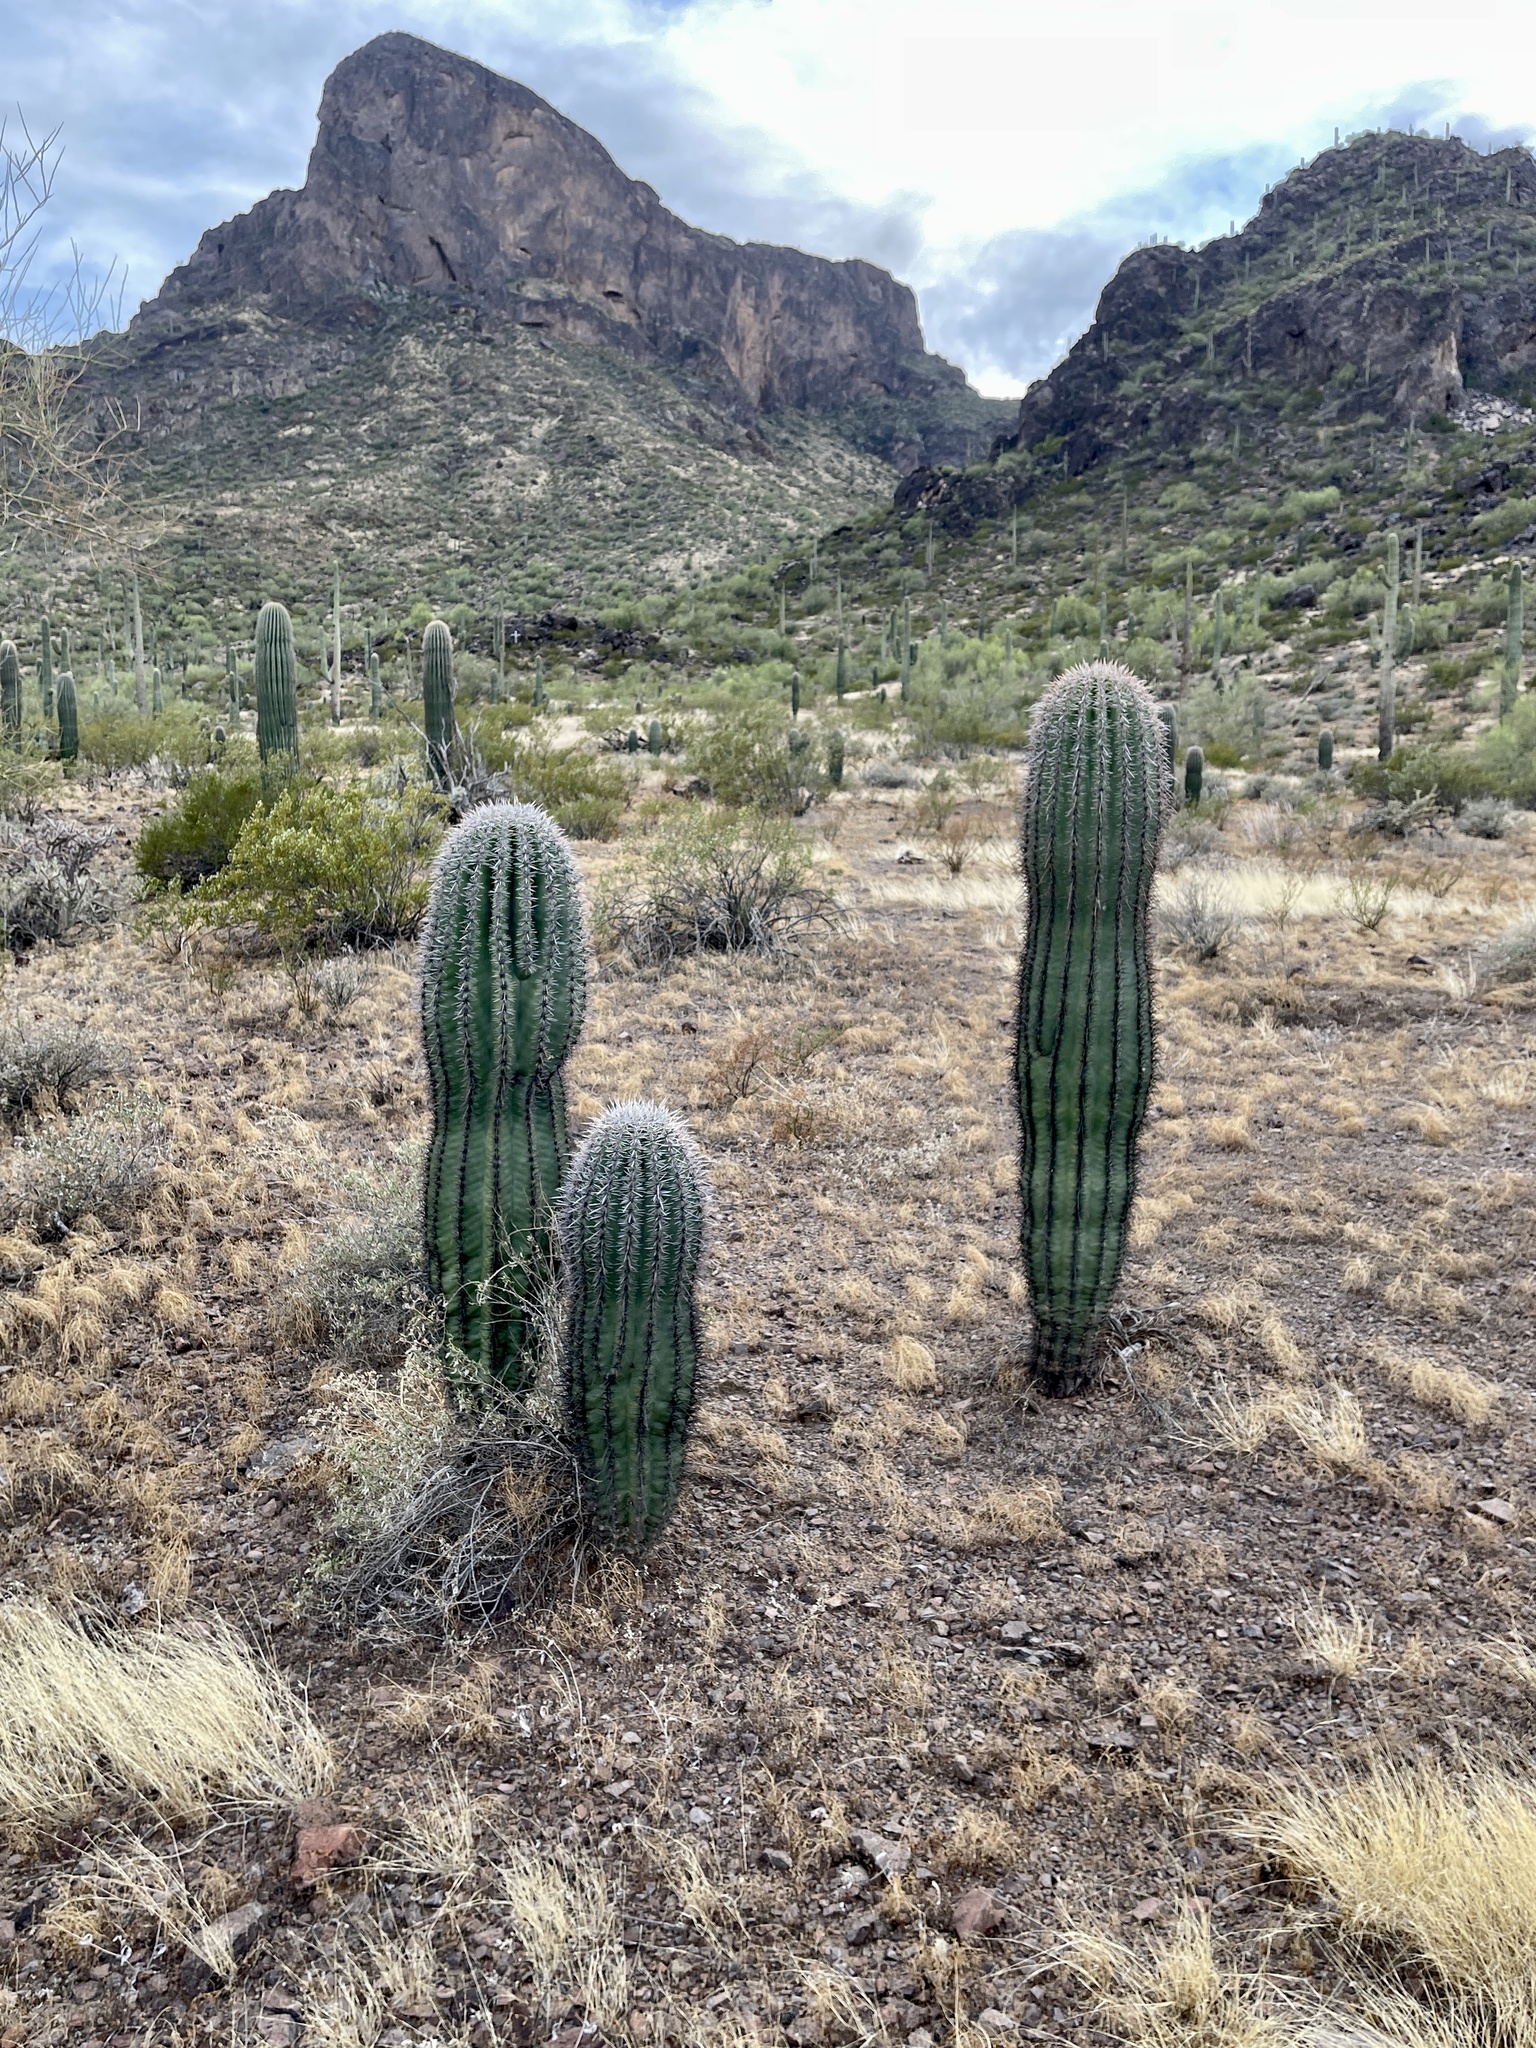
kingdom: Plantae
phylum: Tracheophyta
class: Magnoliopsida
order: Caryophyllales
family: Cactaceae
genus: Carnegiea
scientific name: Carnegiea gigantea
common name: Saguaro
